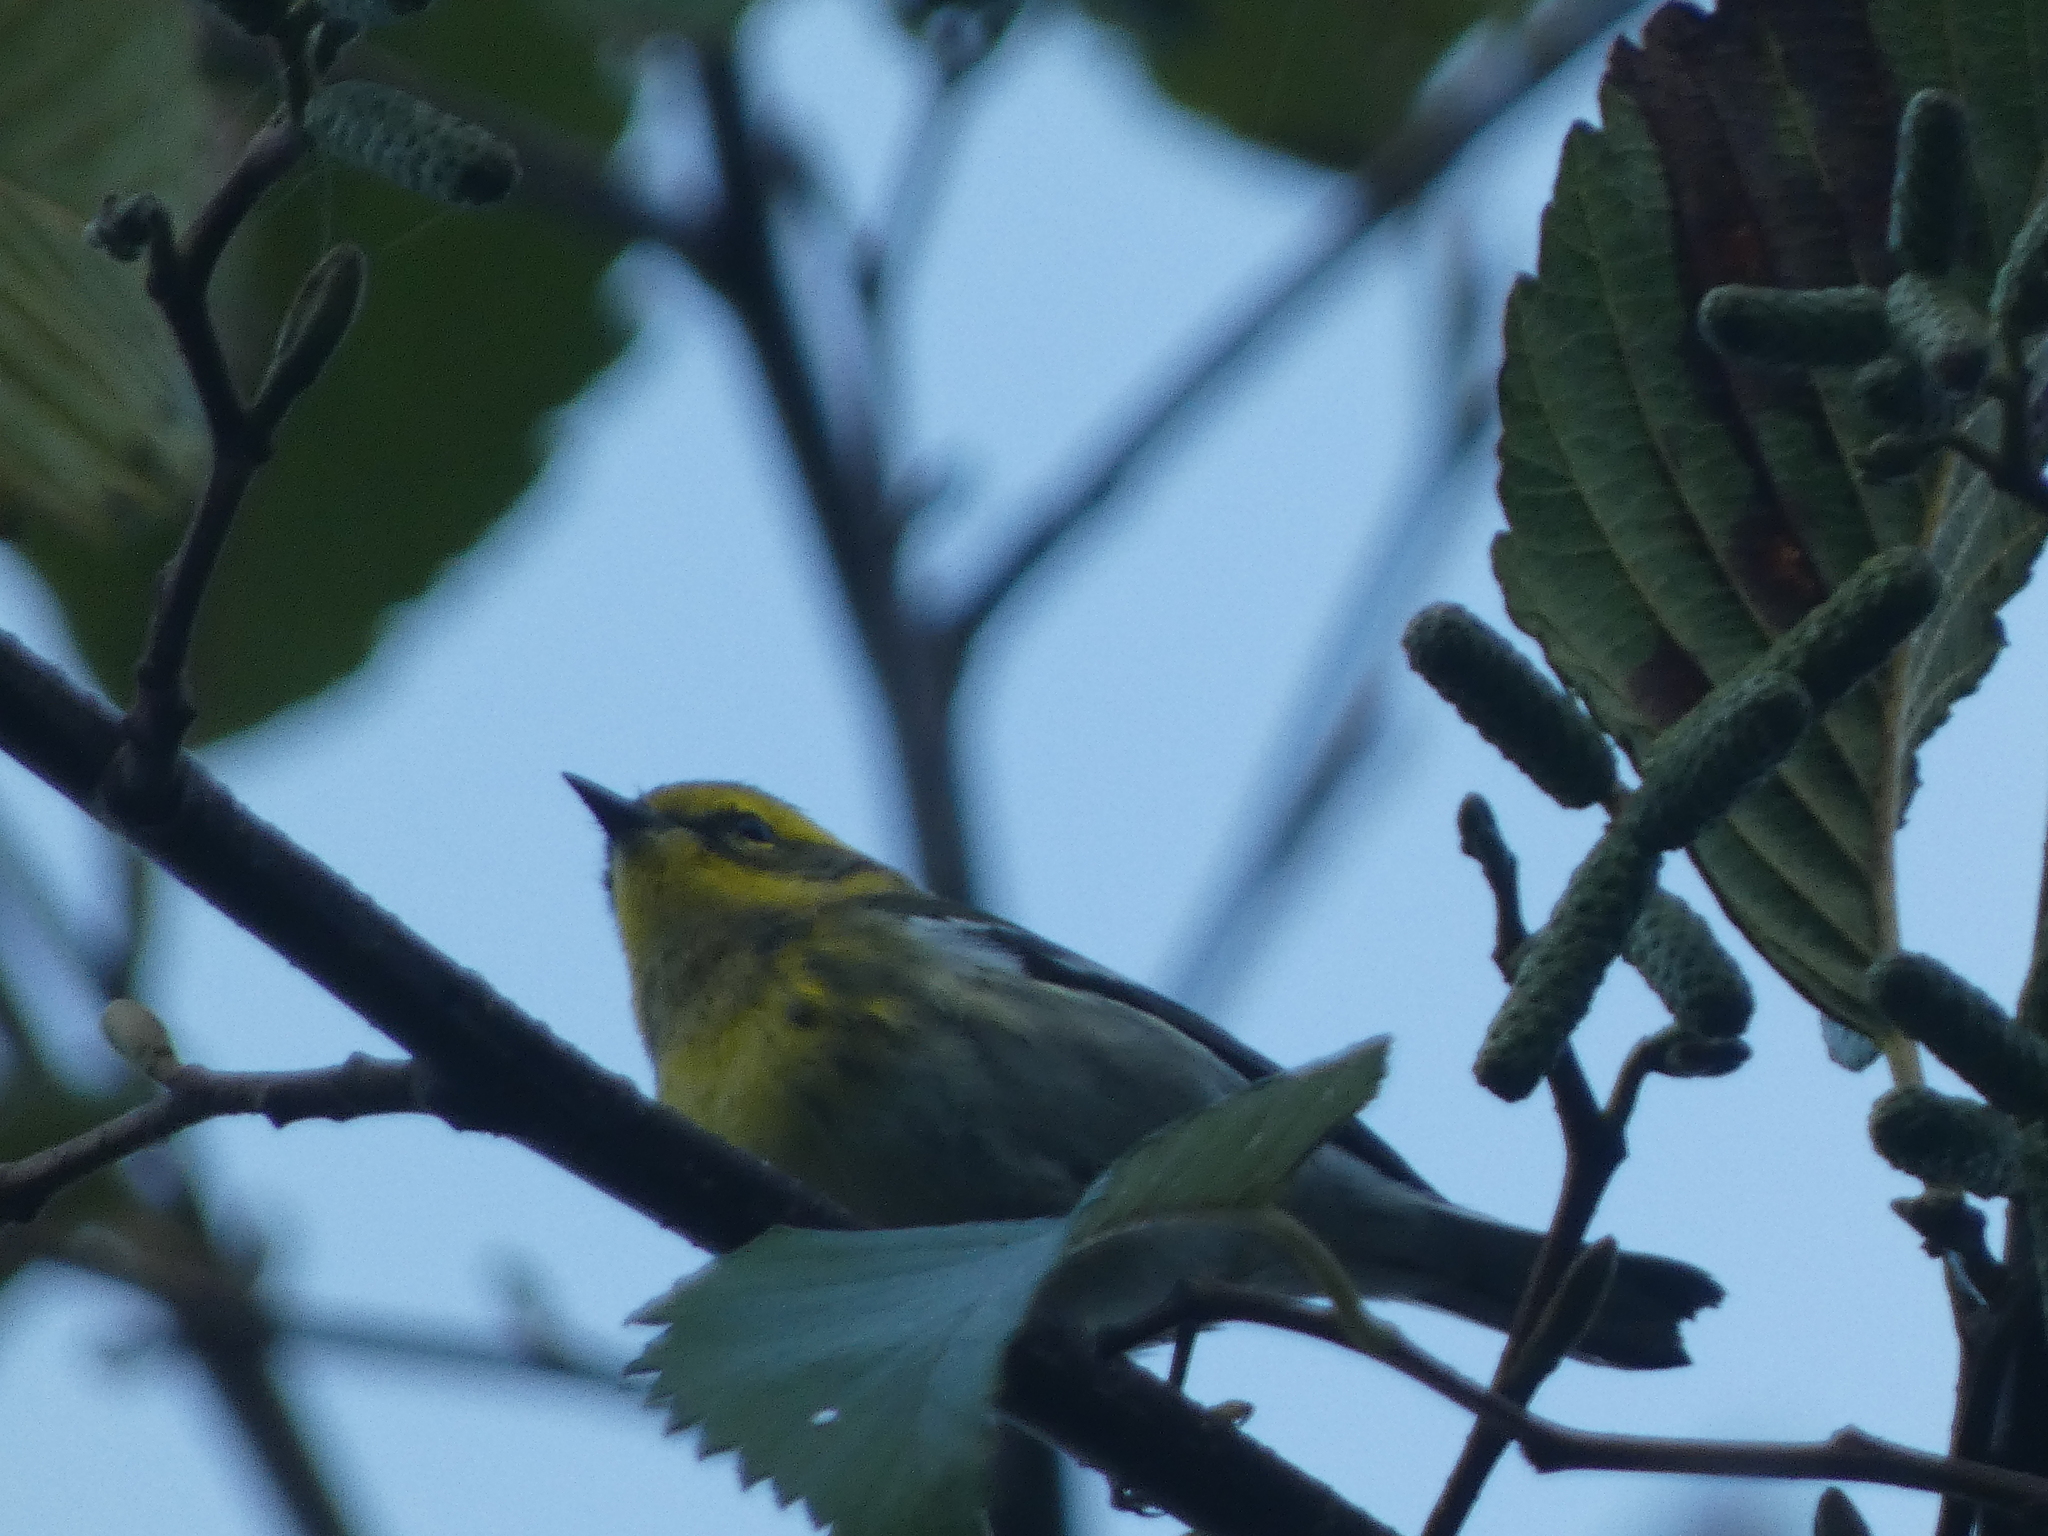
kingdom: Animalia
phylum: Chordata
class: Aves
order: Passeriformes
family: Parulidae
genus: Setophaga
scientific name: Setophaga townsendi
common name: Townsend's warbler
